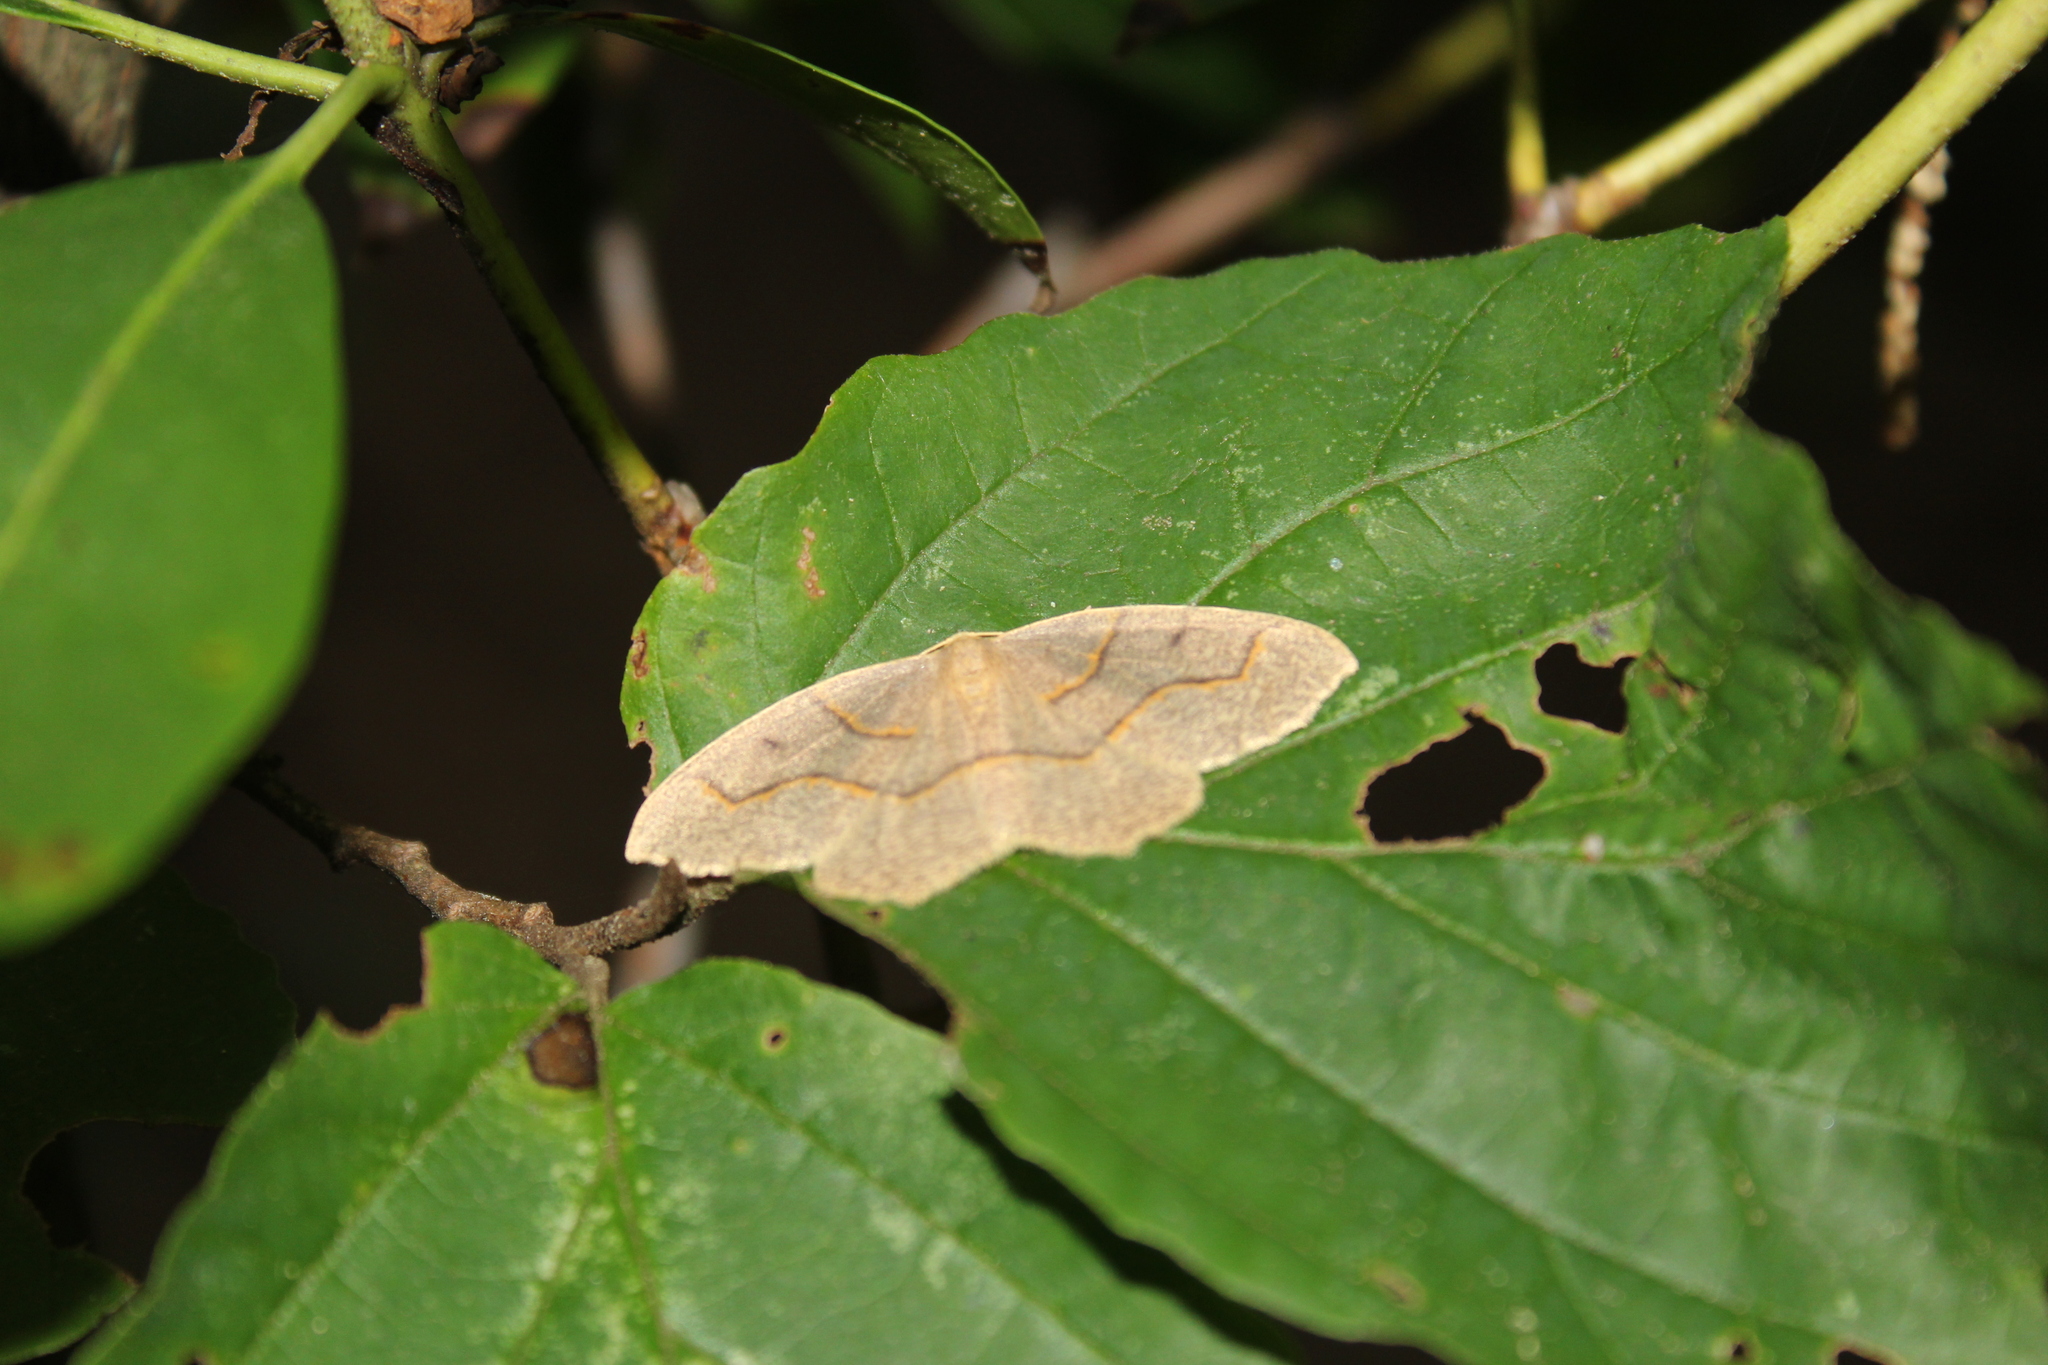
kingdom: Animalia
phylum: Arthropoda
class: Insecta
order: Lepidoptera
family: Geometridae
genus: Lambdina
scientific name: Lambdina fiscellaria
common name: Hemlock looper
